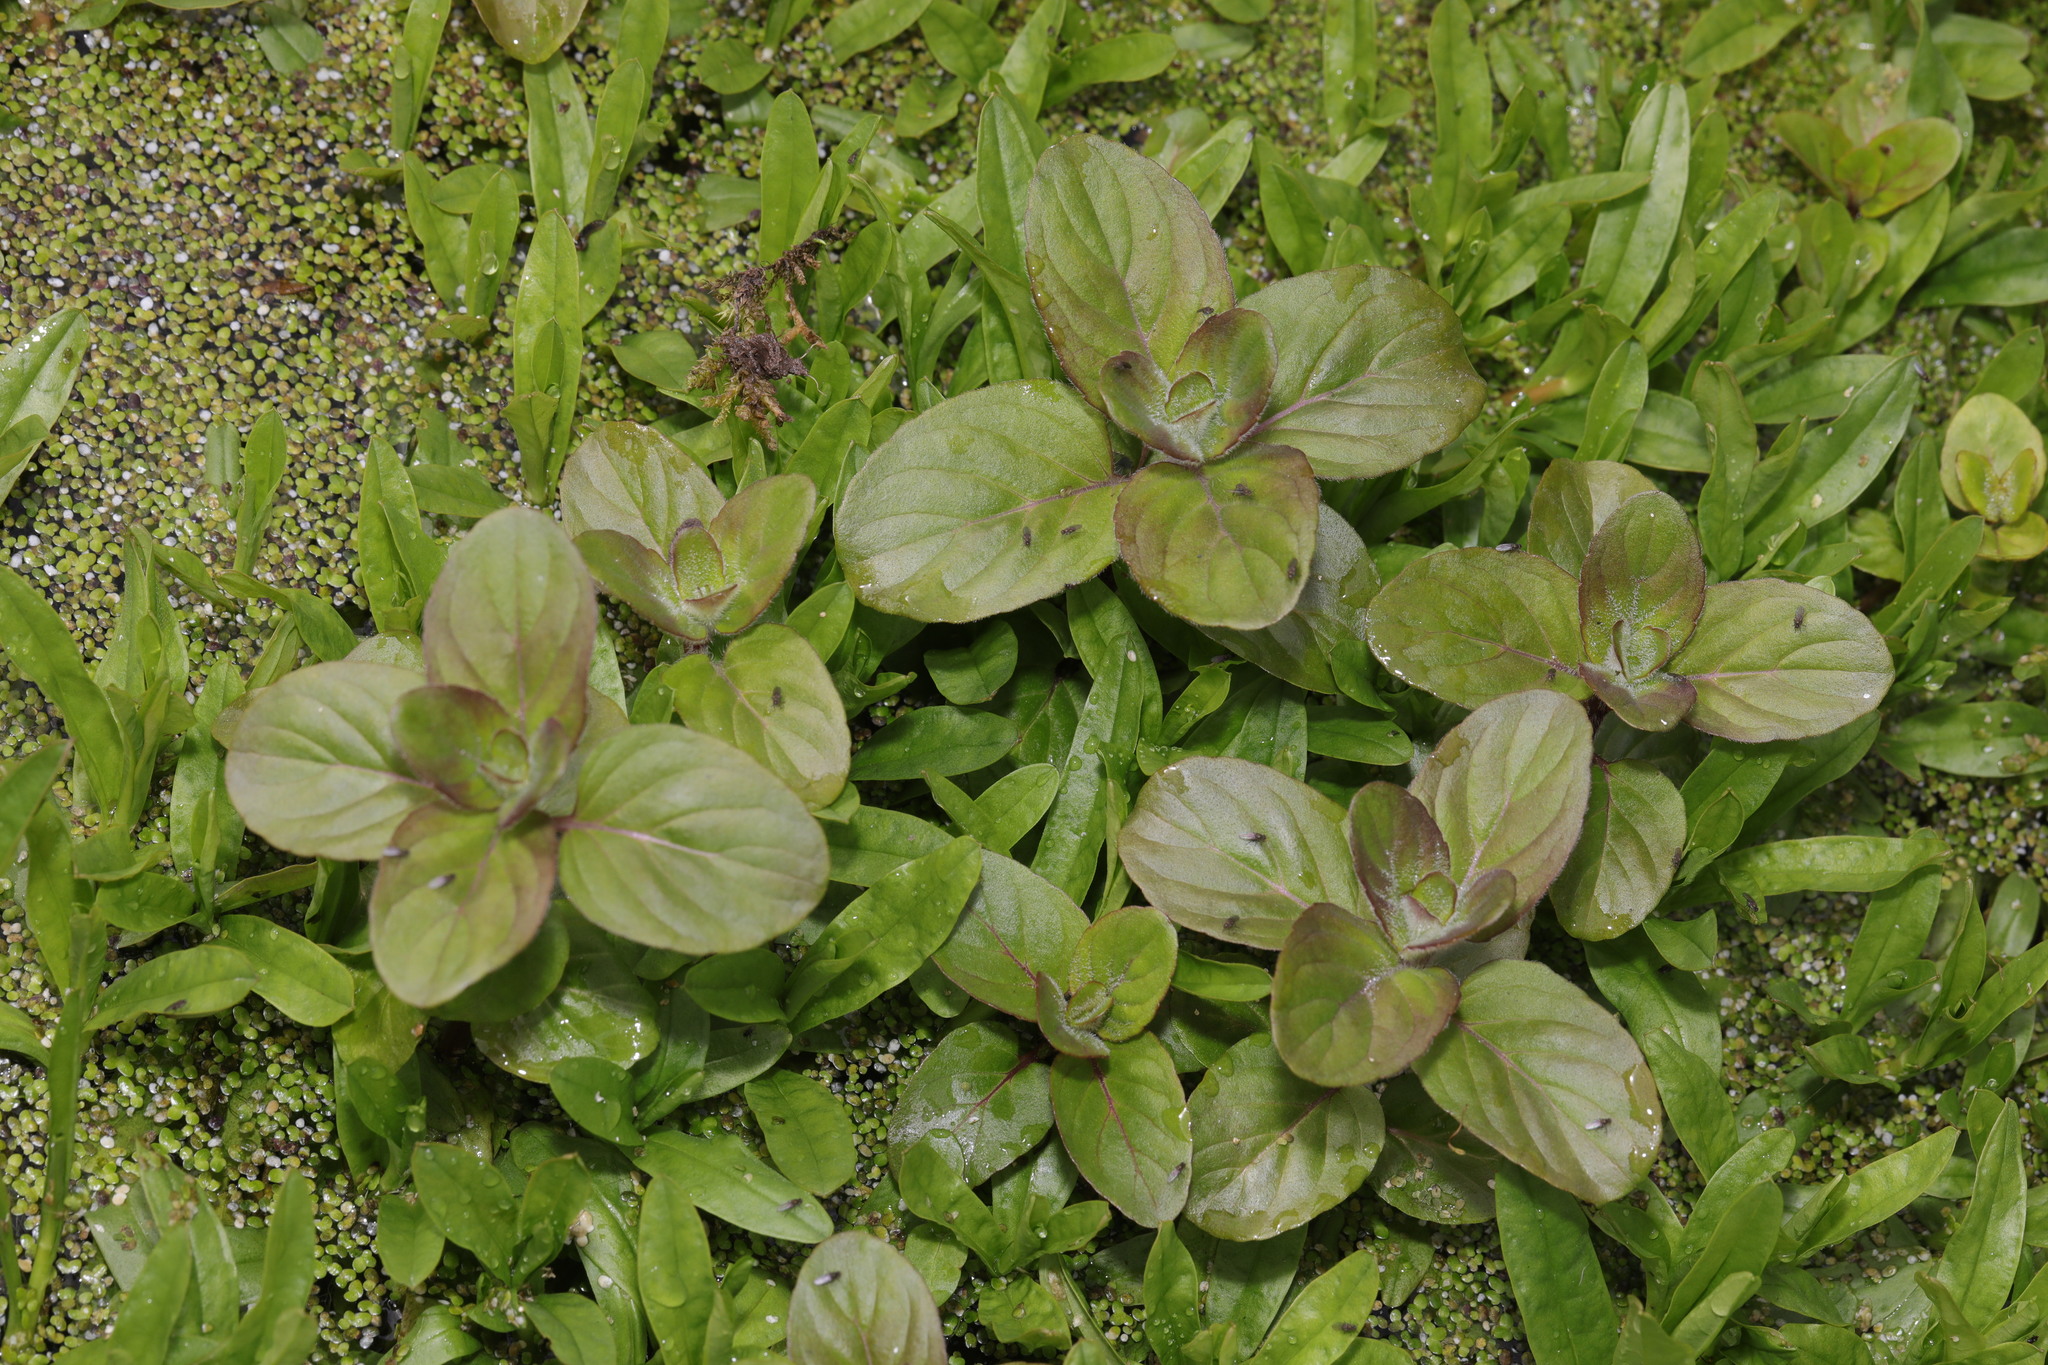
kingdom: Plantae
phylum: Tracheophyta
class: Magnoliopsida
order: Lamiales
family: Lamiaceae
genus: Mentha
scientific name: Mentha aquatica
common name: Water mint
